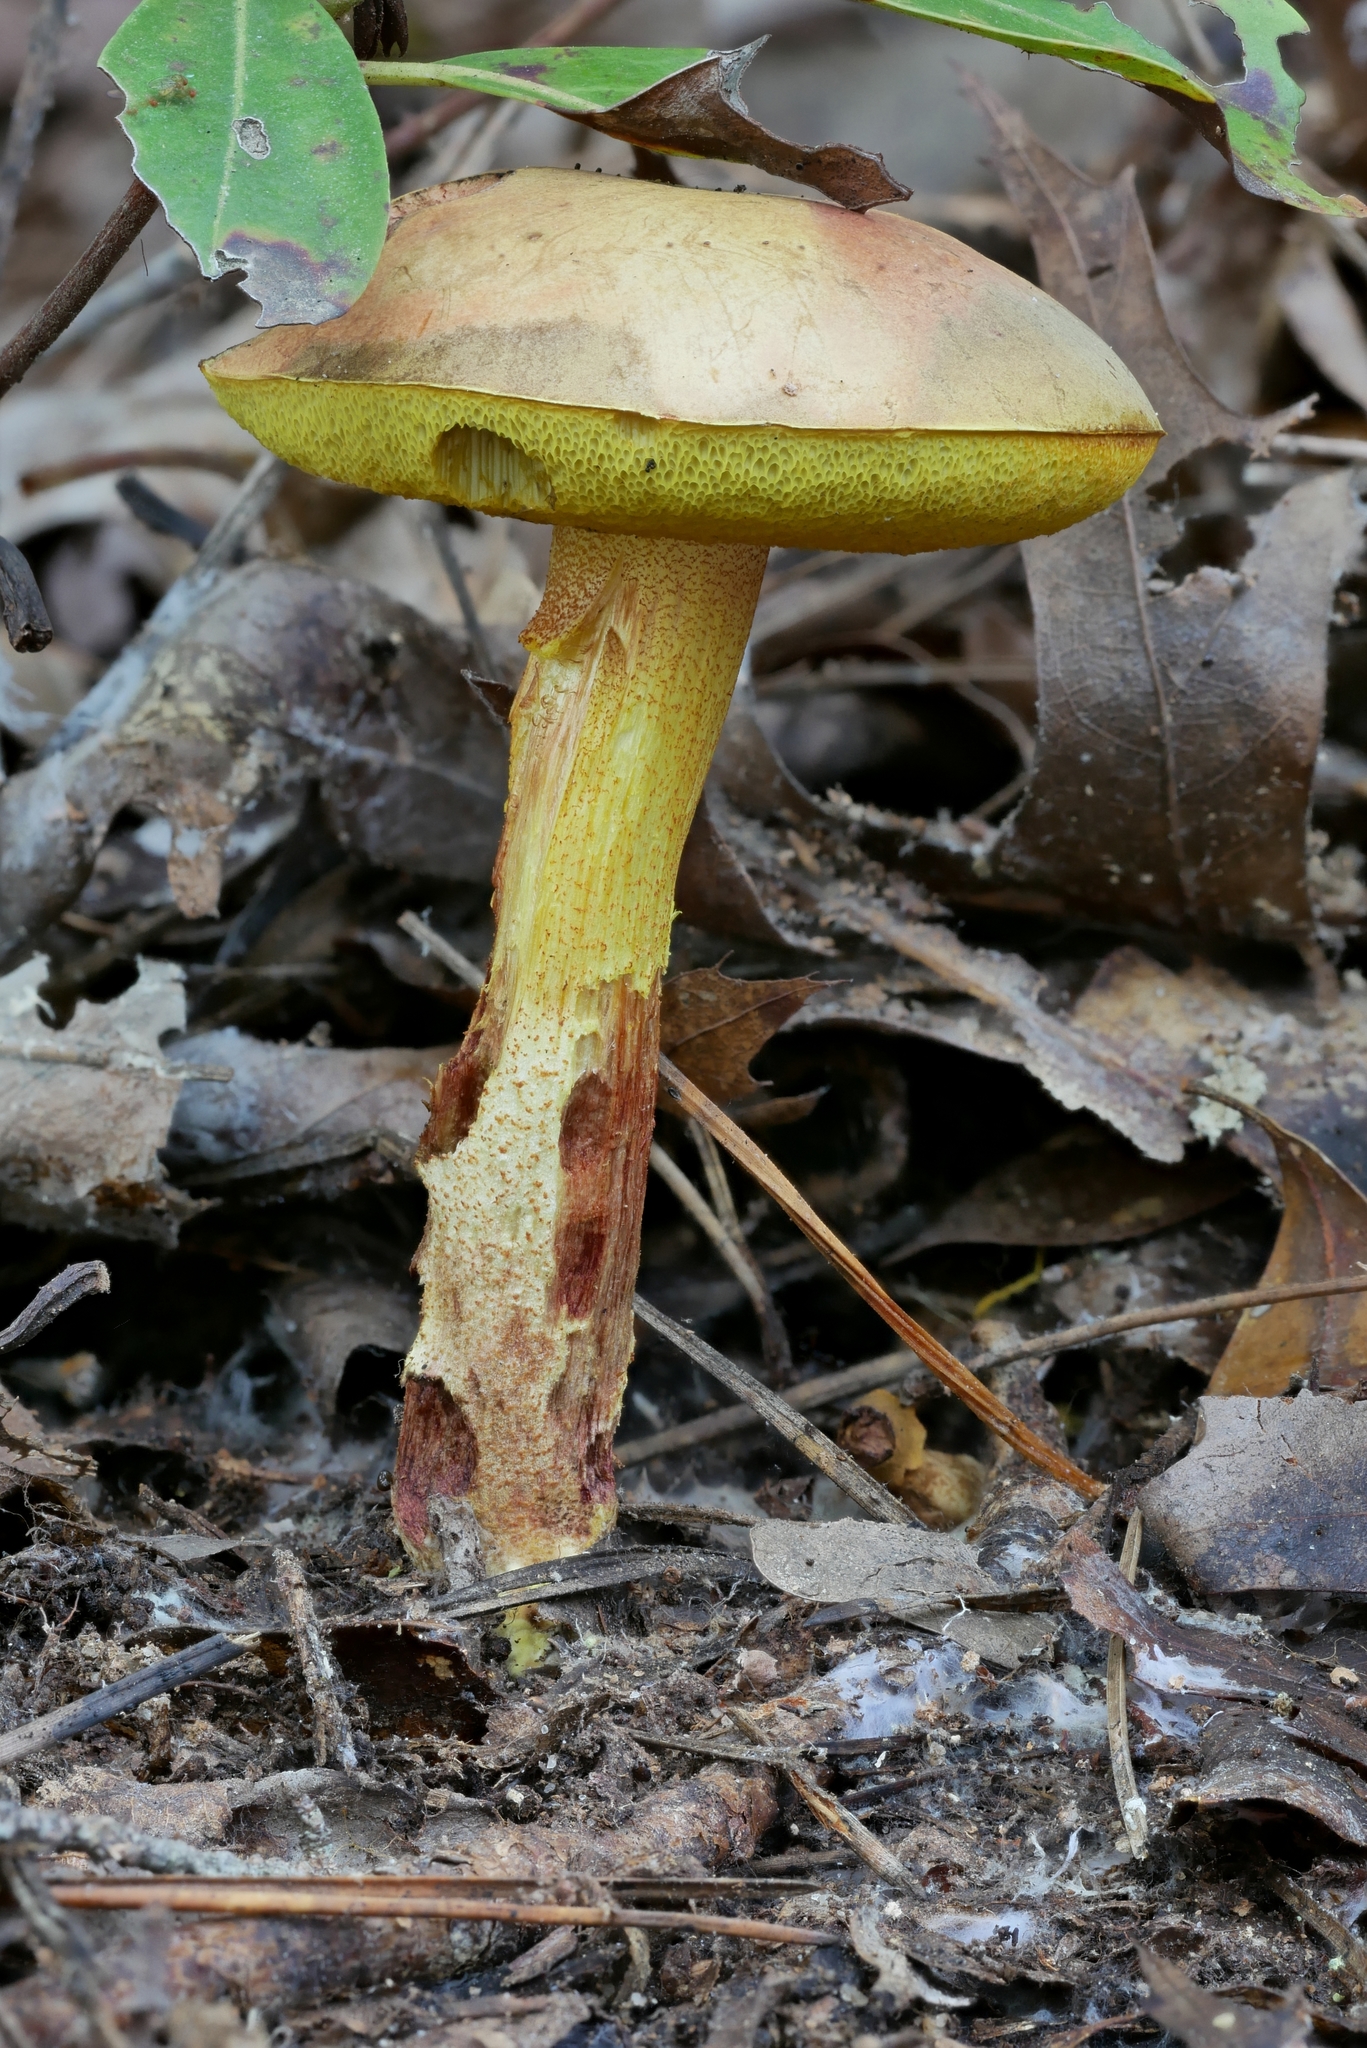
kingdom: Fungi
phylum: Basidiomycota
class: Agaricomycetes
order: Boletales
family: Boletaceae
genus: Xerocomus
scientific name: Xerocomus morrisii
